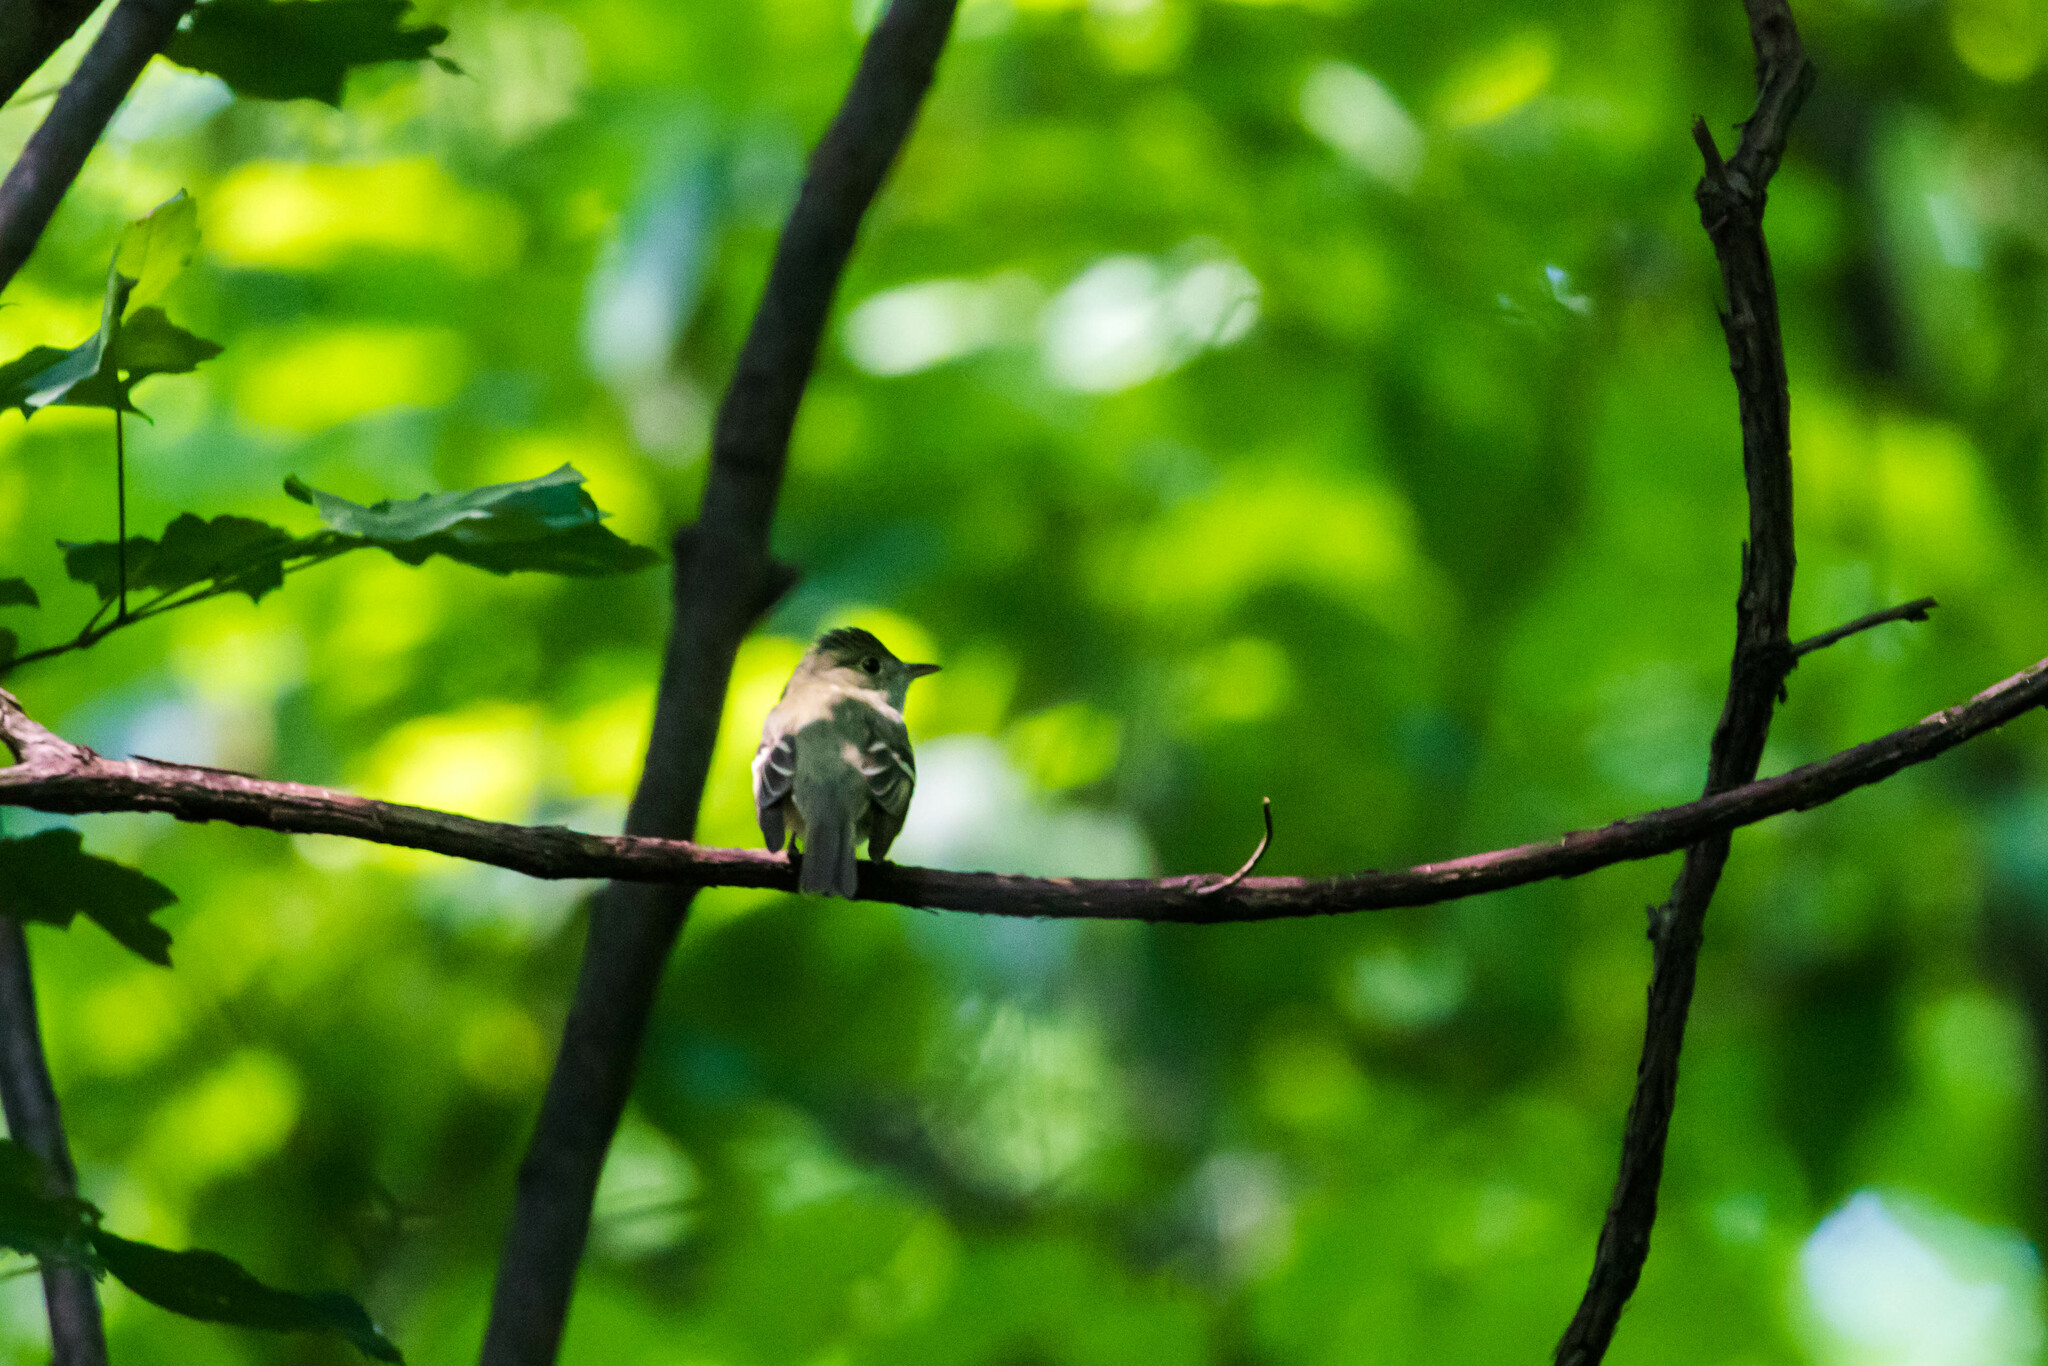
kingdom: Animalia
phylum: Chordata
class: Aves
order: Passeriformes
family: Tyrannidae
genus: Empidonax
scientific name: Empidonax virescens
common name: Acadian flycatcher
